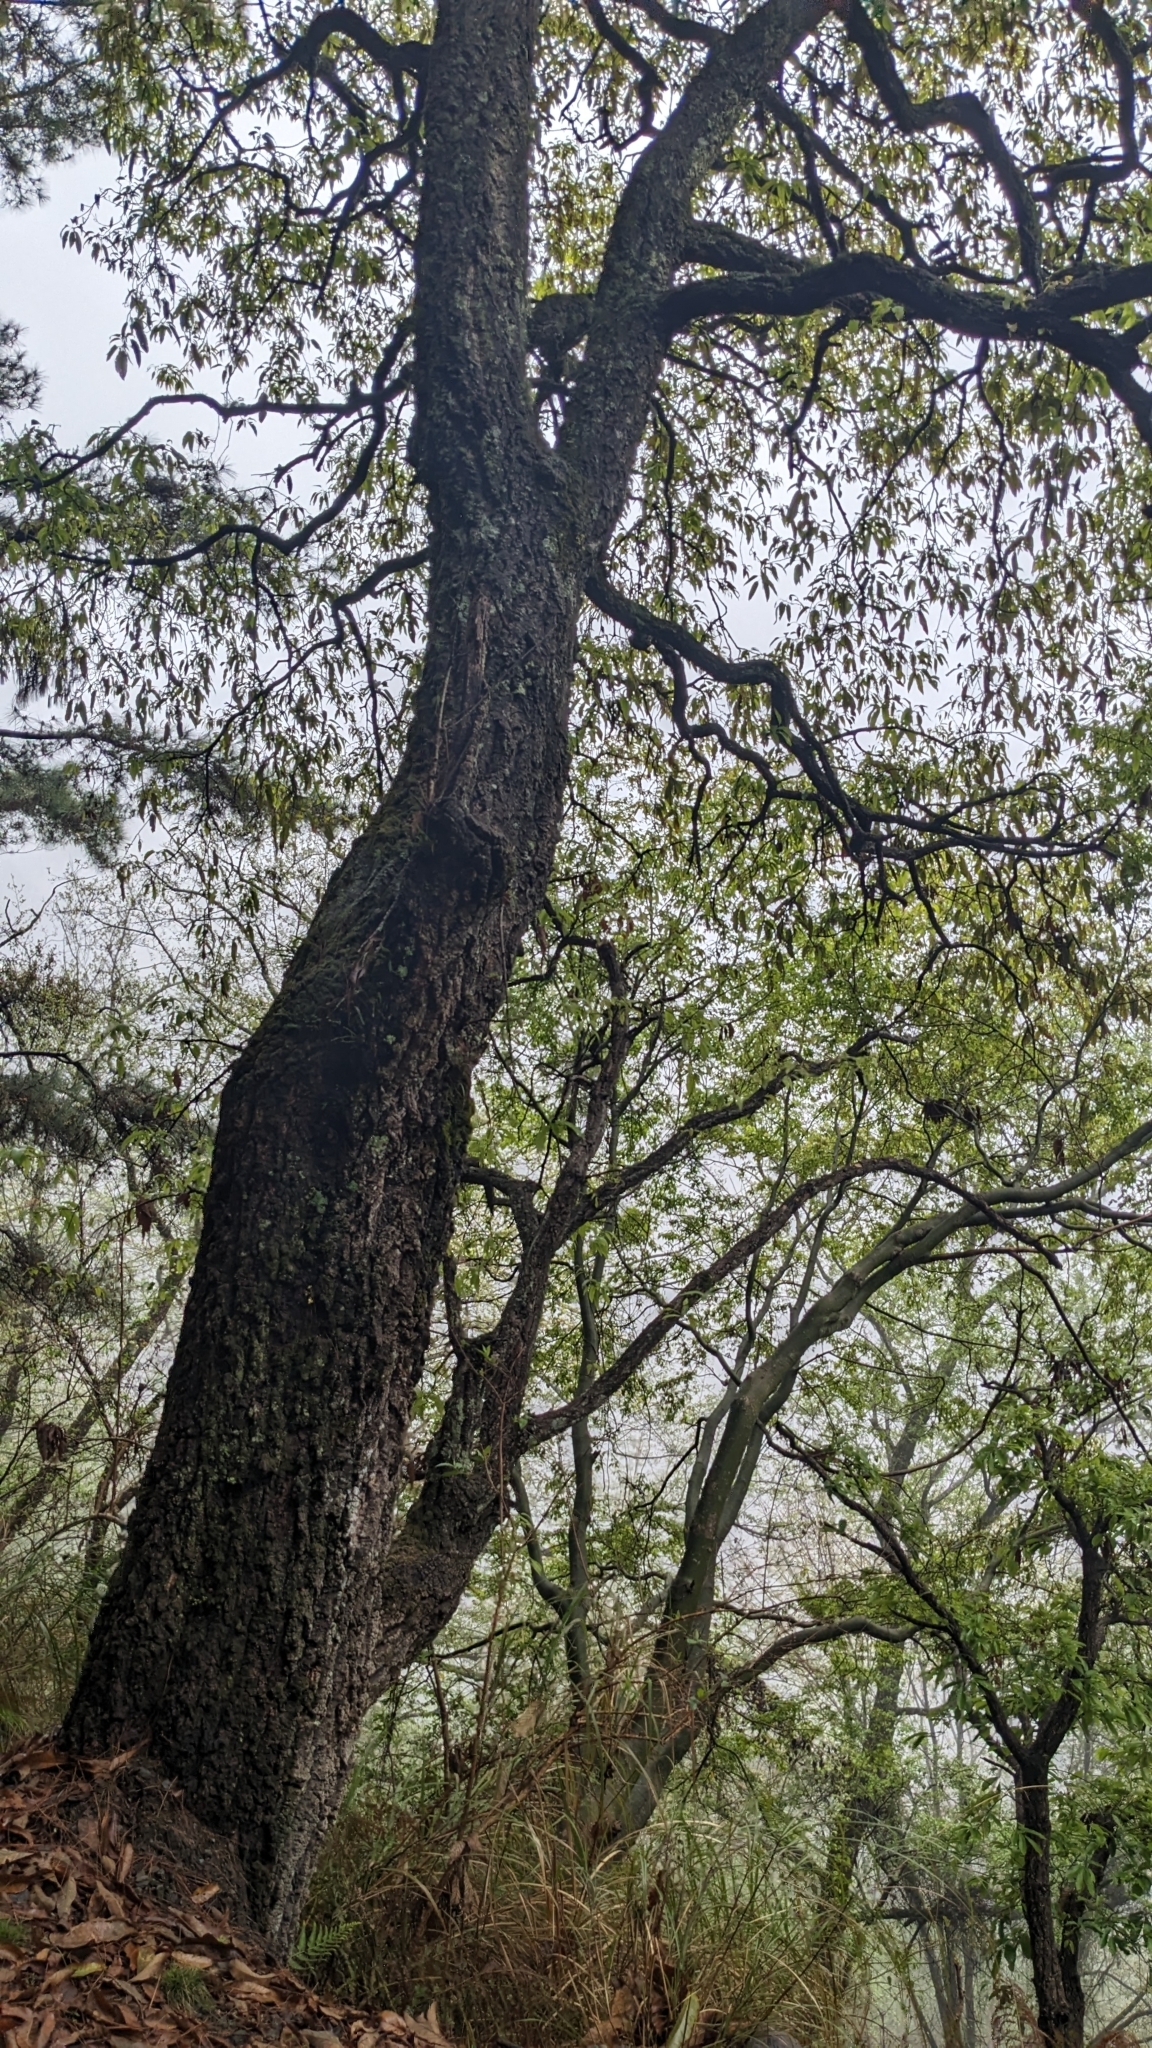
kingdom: Plantae
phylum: Tracheophyta
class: Magnoliopsida
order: Fagales
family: Fagaceae
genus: Quercus
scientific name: Quercus variabilis
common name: Chinese cork oak
